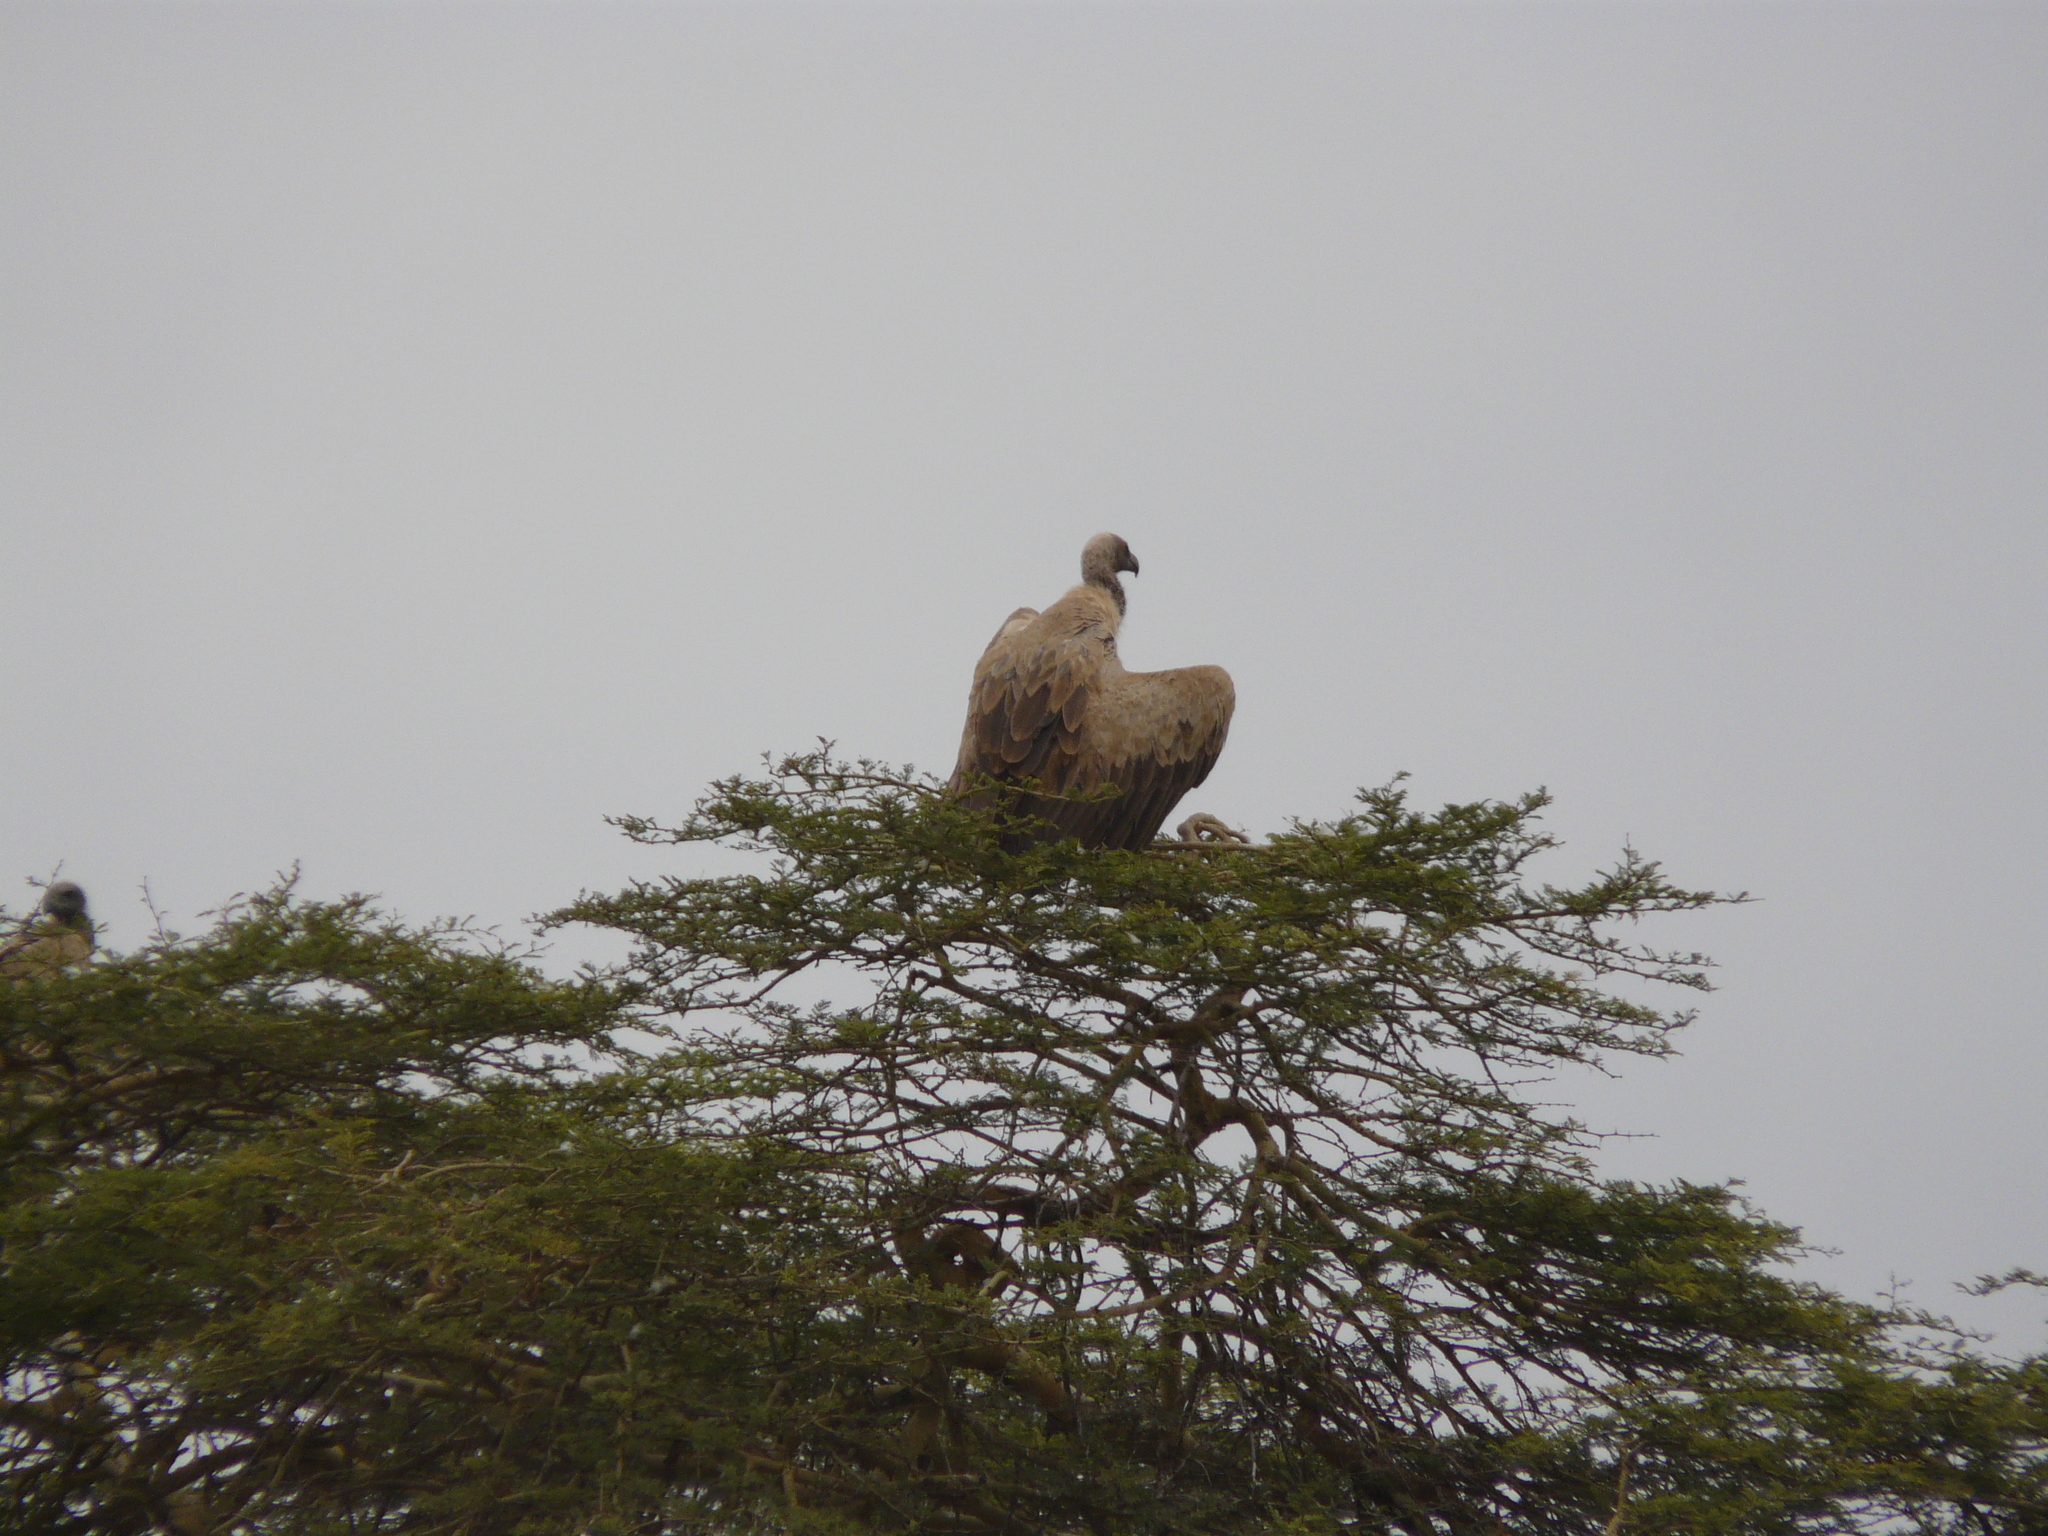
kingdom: Animalia
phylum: Chordata
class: Aves
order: Accipitriformes
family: Accipitridae
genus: Gyps
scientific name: Gyps africanus
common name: White-backed vulture
